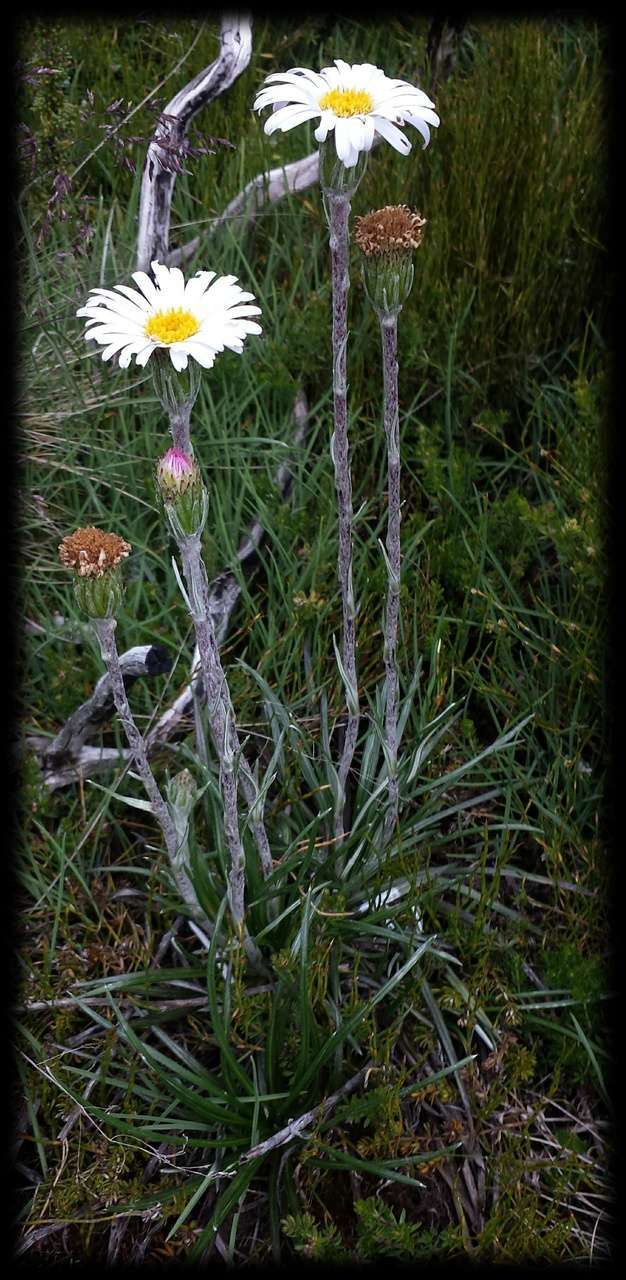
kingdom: Plantae
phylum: Tracheophyta
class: Magnoliopsida
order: Asterales
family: Asteraceae
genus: Celmisia
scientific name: Celmisia pugioniformis
